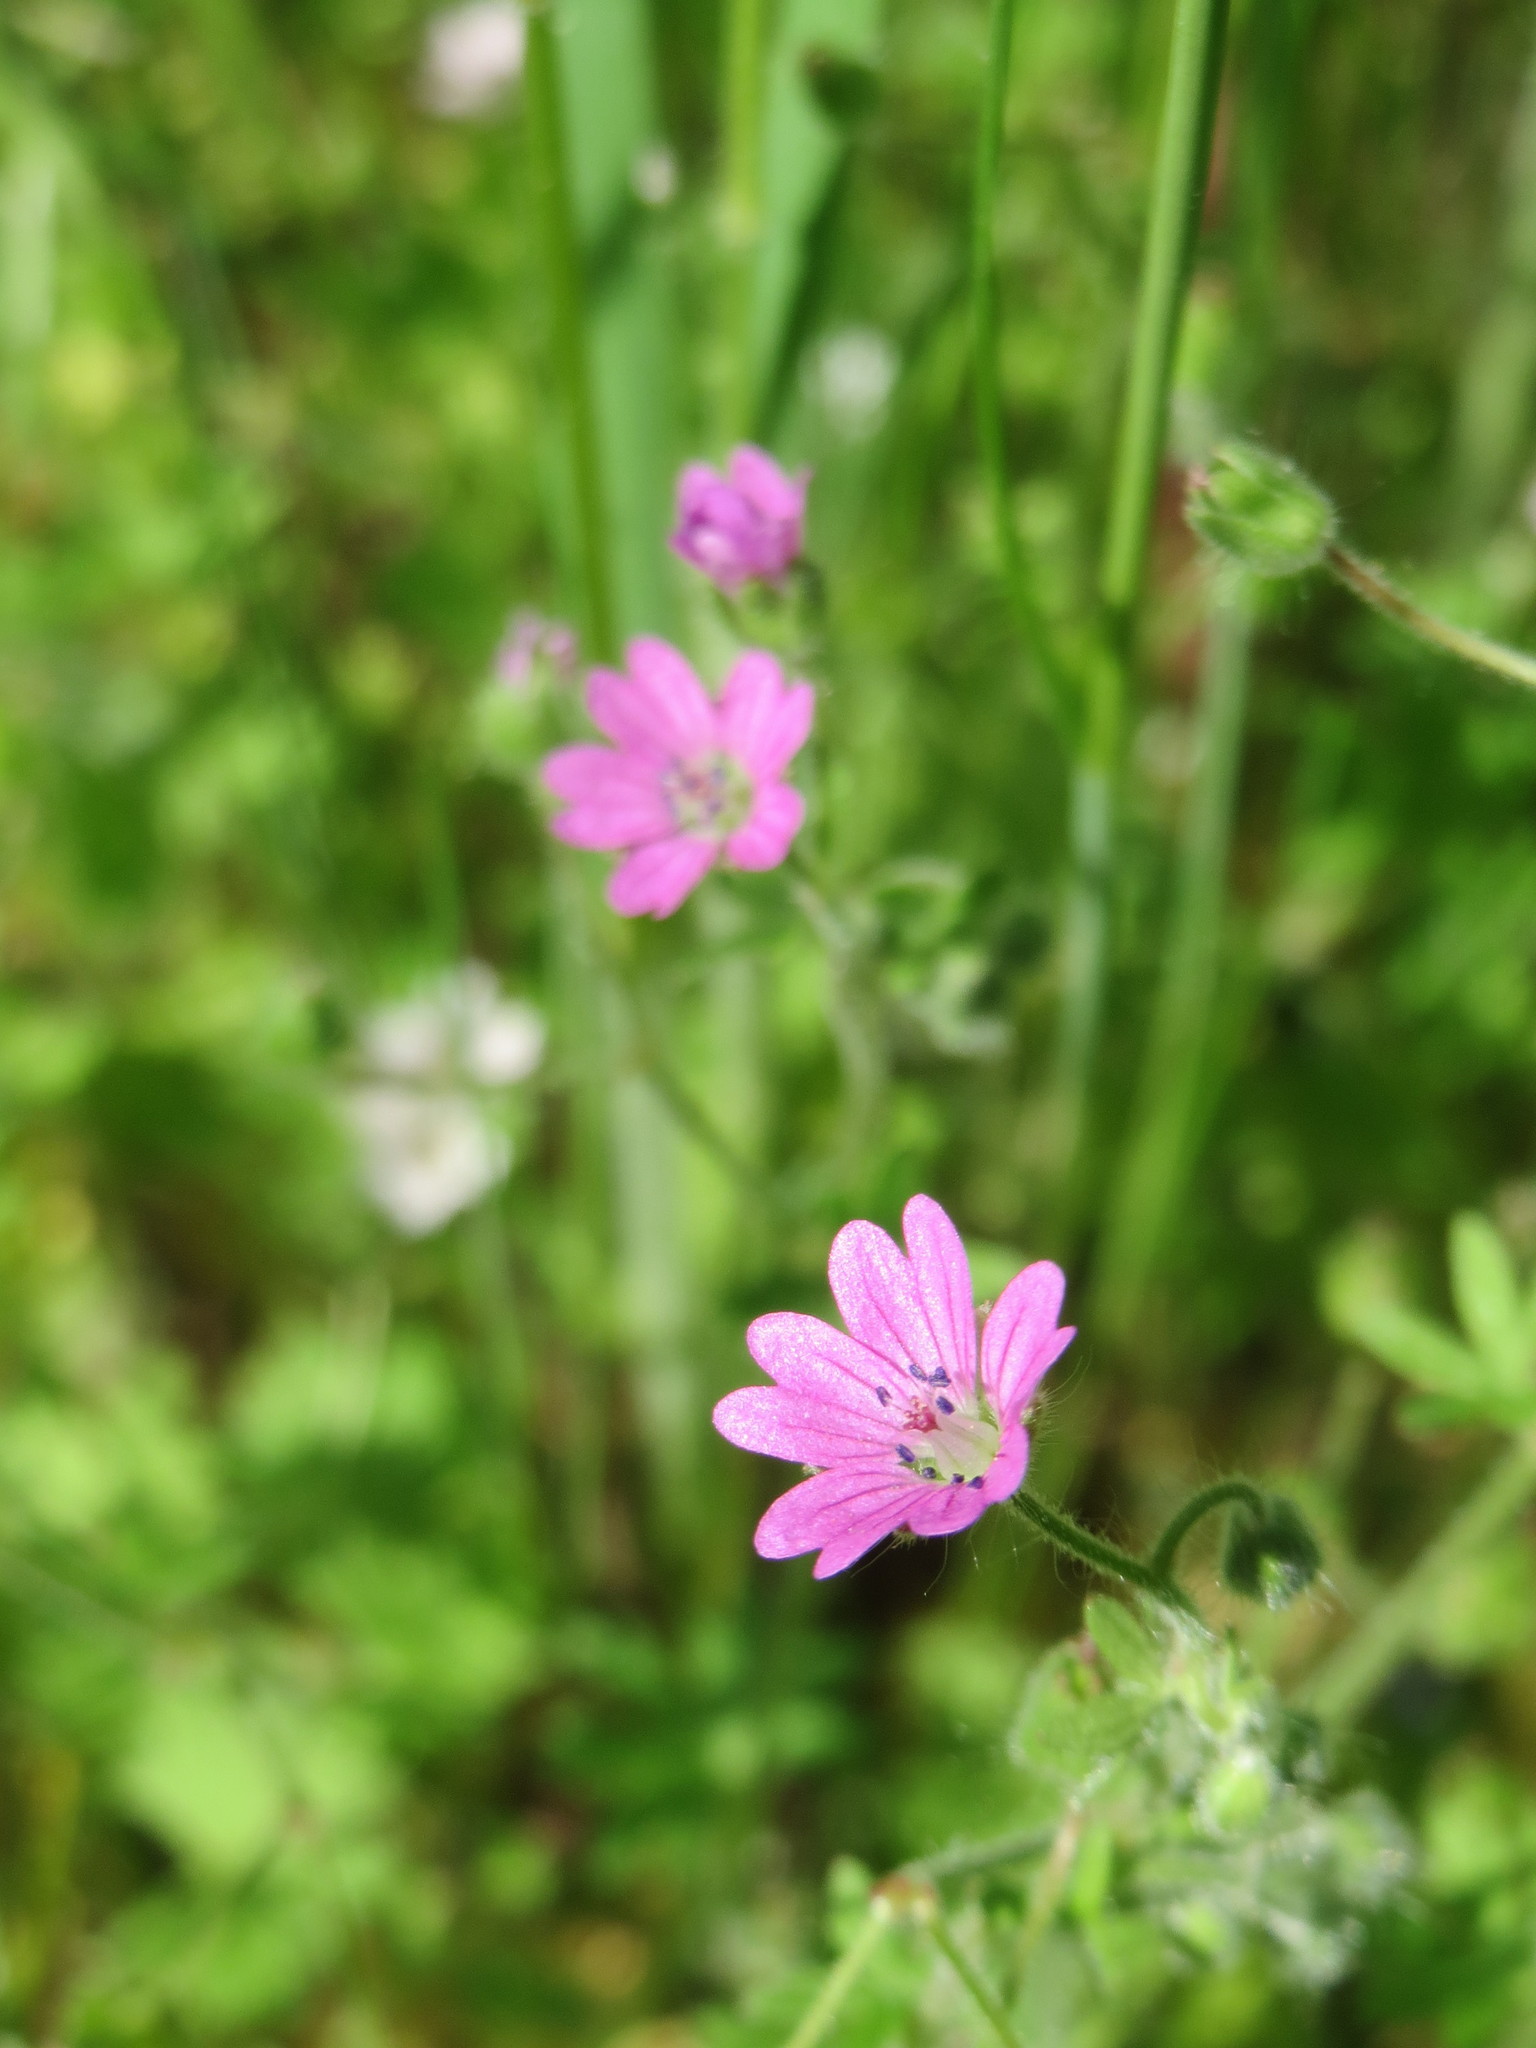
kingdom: Plantae
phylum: Tracheophyta
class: Magnoliopsida
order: Geraniales
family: Geraniaceae
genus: Geranium
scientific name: Geranium molle
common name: Dove's-foot crane's-bill
